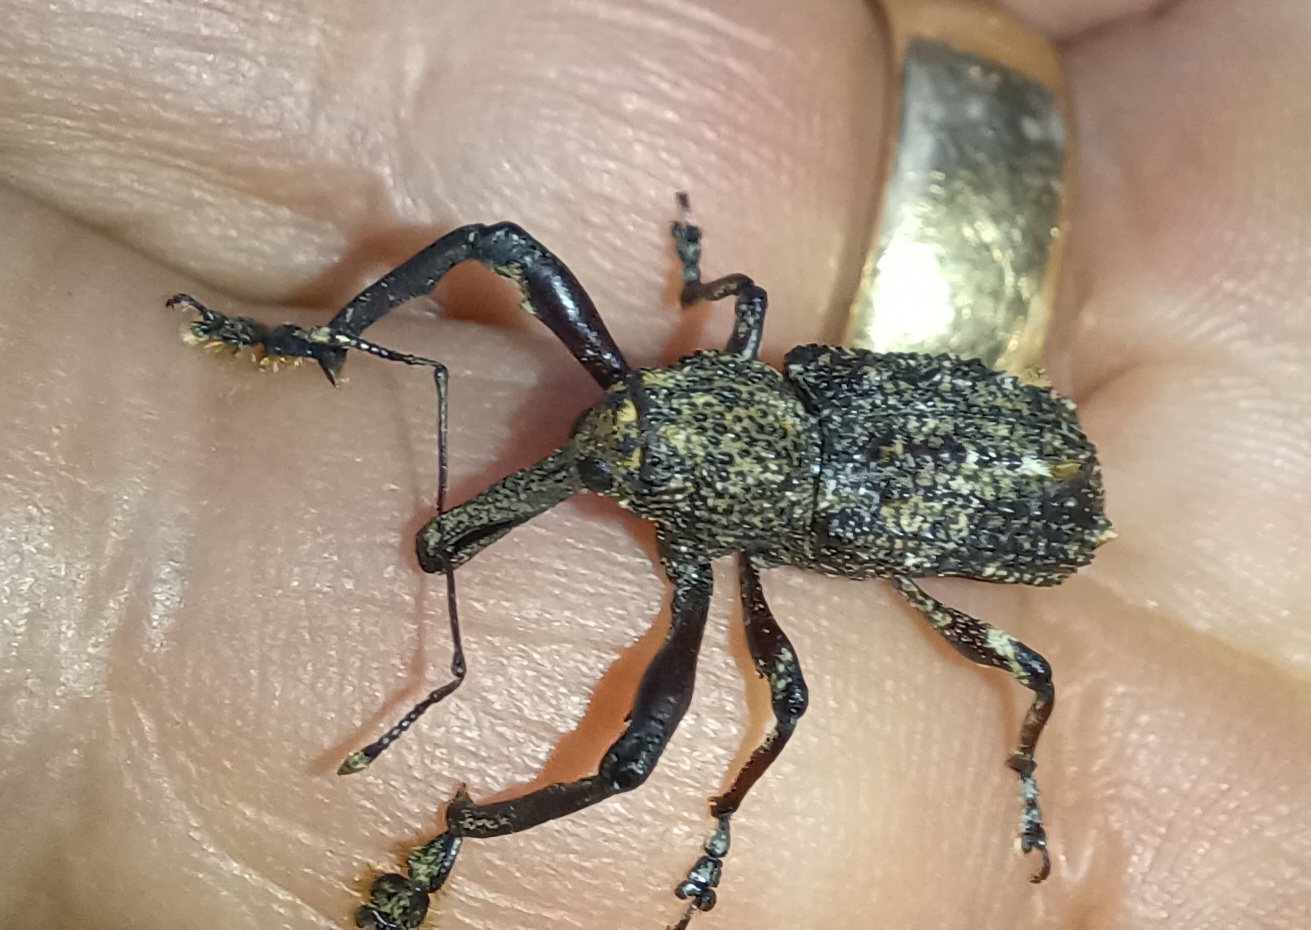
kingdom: Animalia
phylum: Arthropoda
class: Insecta
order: Coleoptera
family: Curculionidae
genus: Orthorhinus
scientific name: Orthorhinus cylindrirostris
